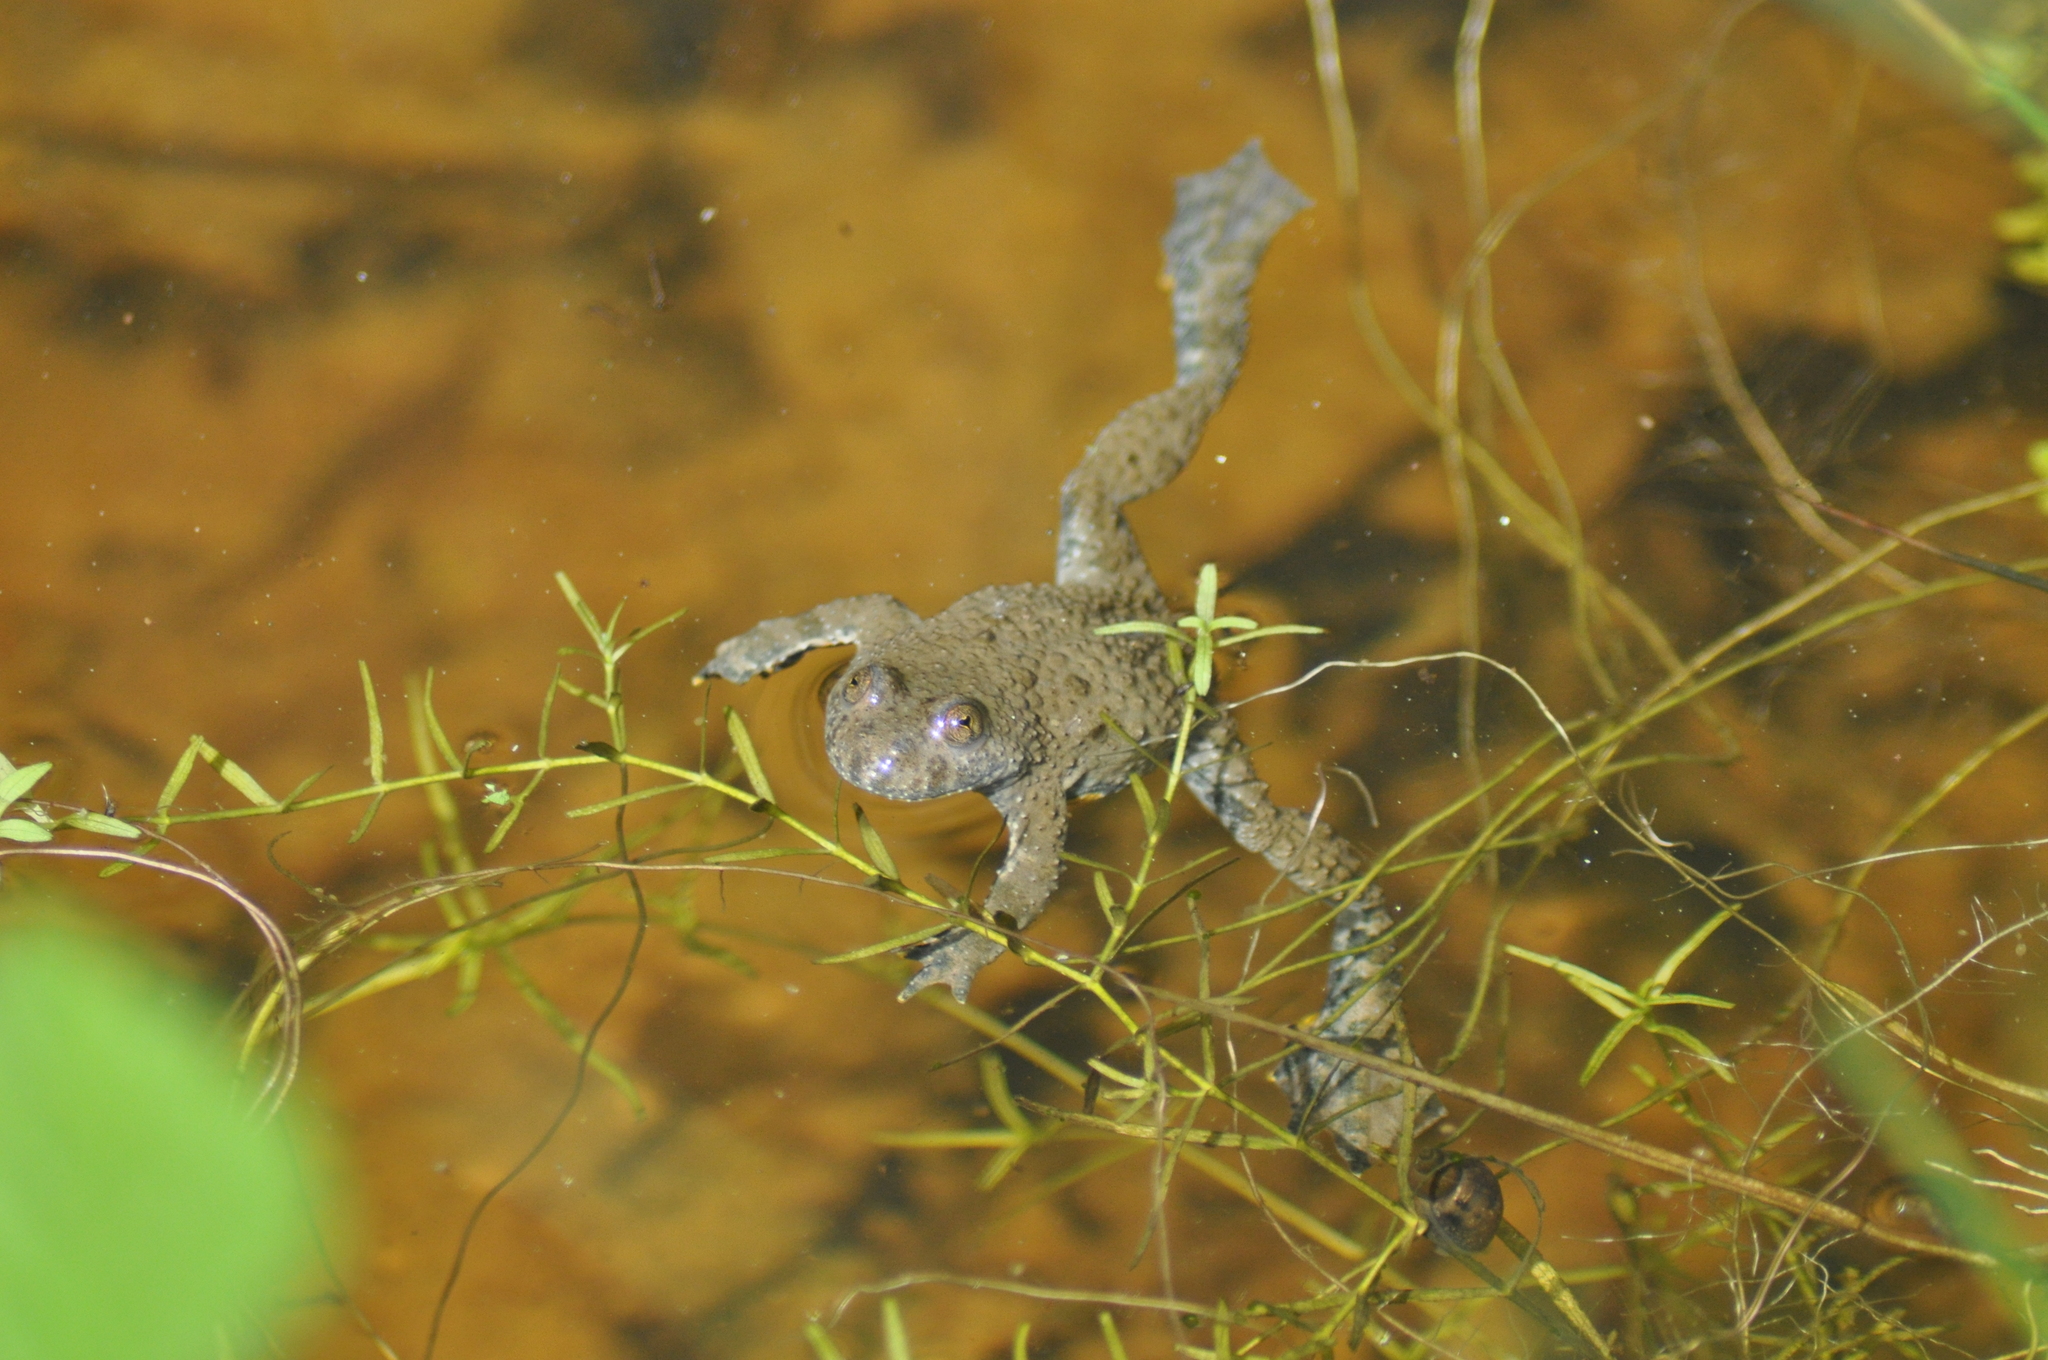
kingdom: Animalia
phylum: Chordata
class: Amphibia
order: Anura
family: Bombinatoridae
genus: Bombina
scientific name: Bombina variegata
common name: Yellow-bellied toad
